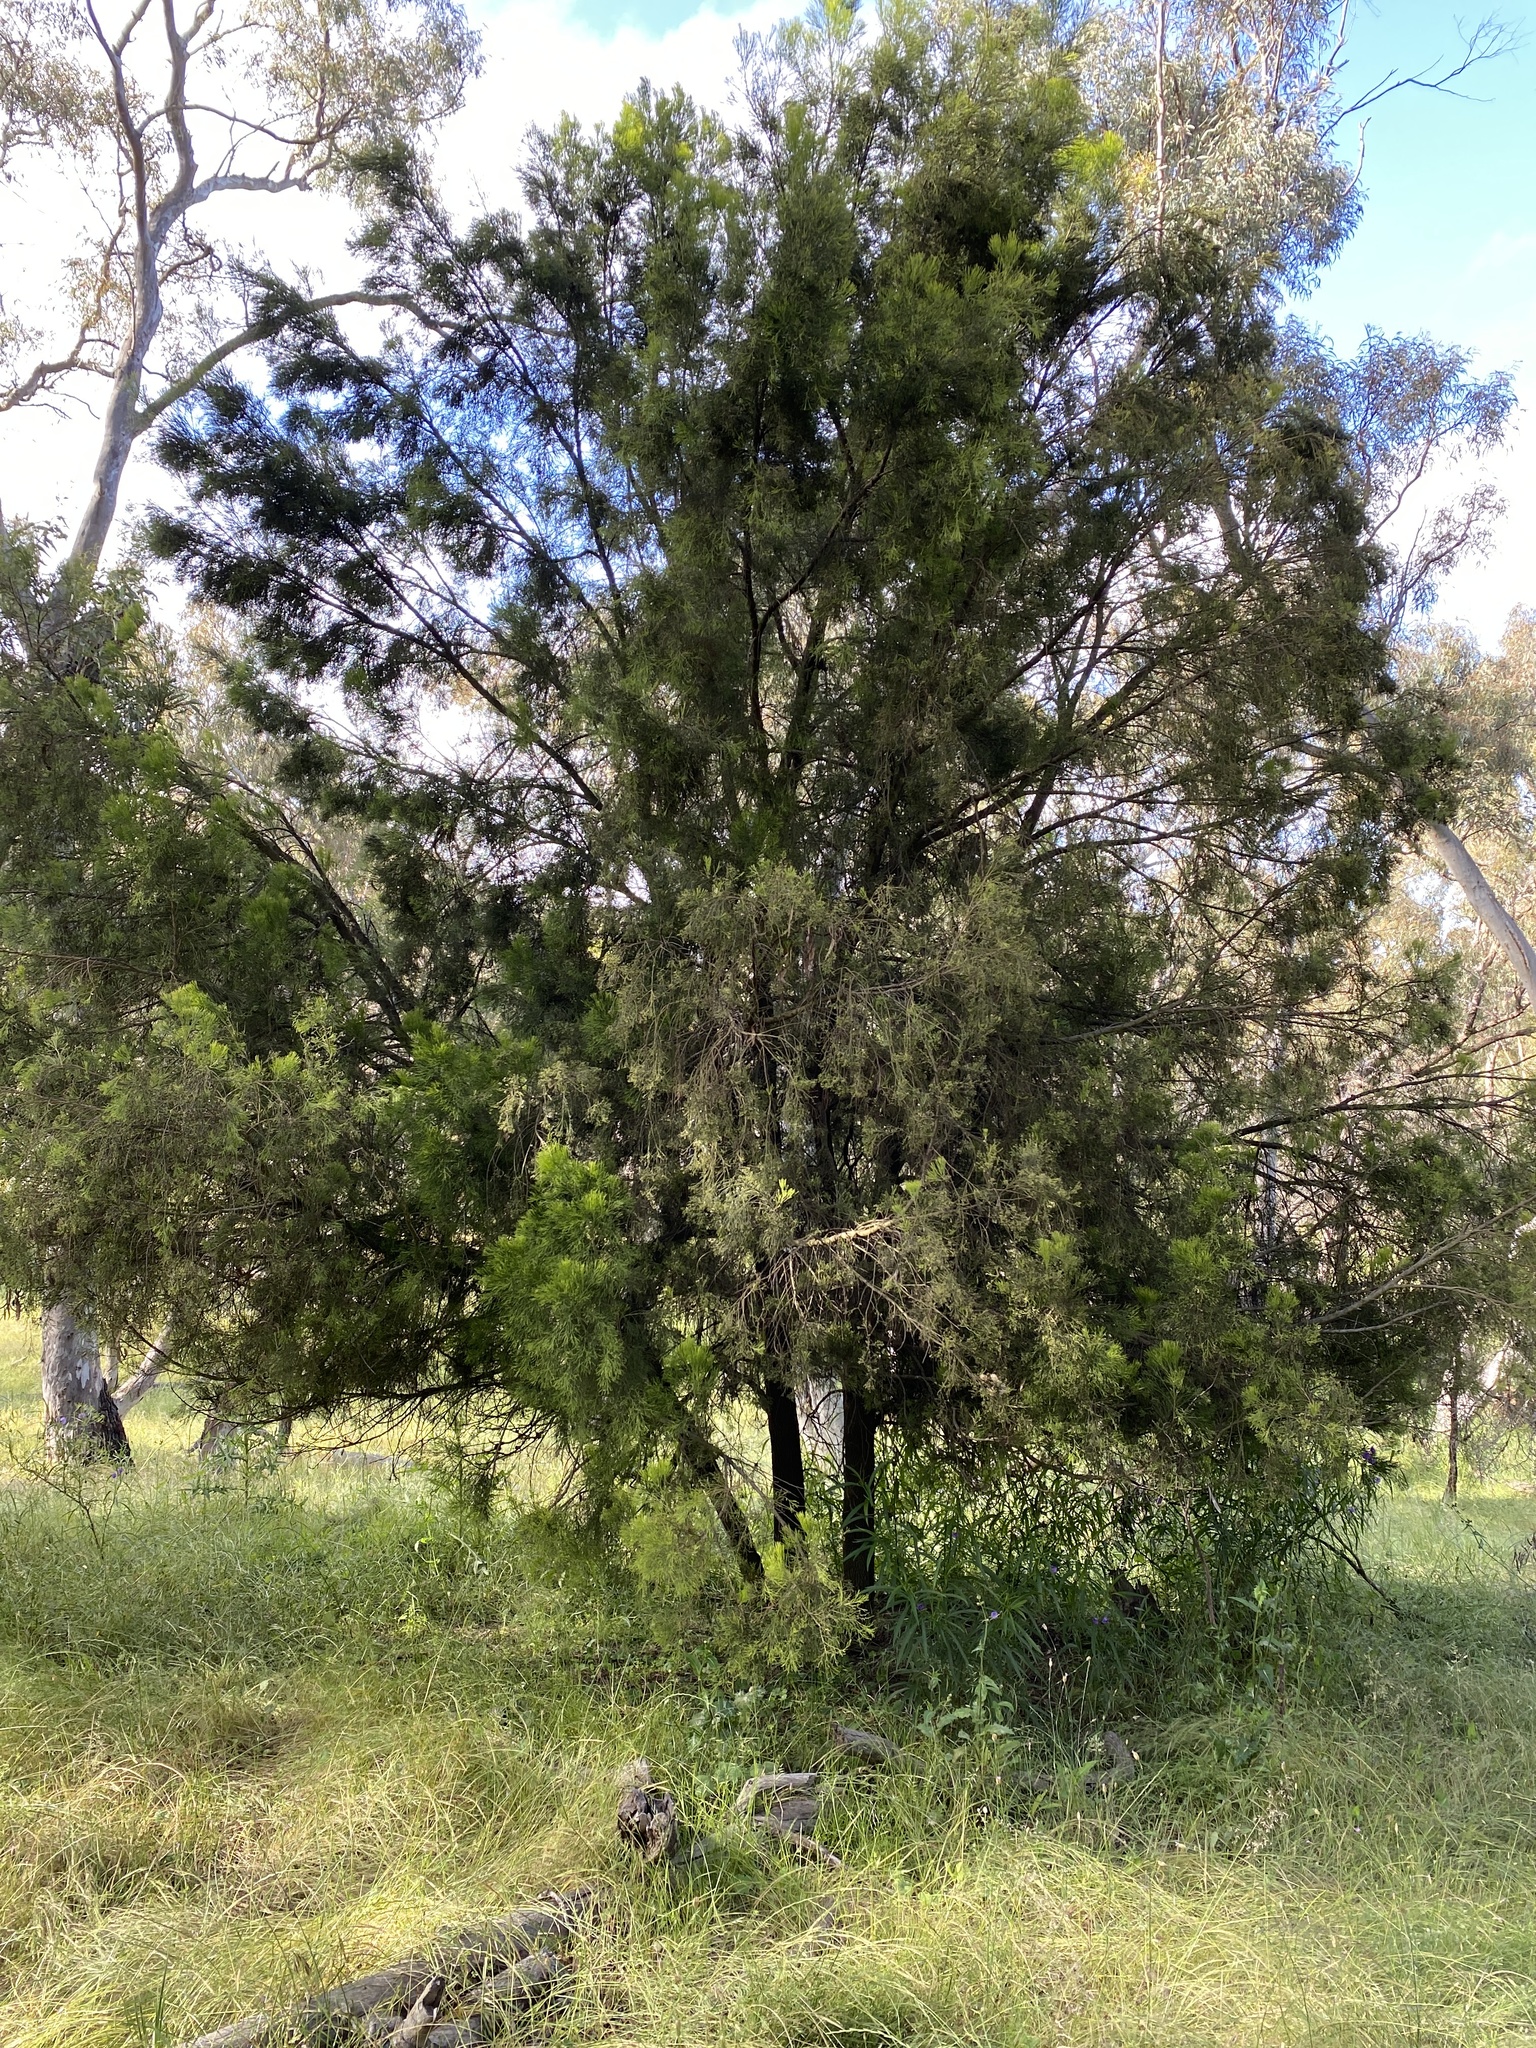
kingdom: Plantae
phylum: Tracheophyta
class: Magnoliopsida
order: Santalales
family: Santalaceae
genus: Exocarpos
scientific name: Exocarpos cupressiformis
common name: Cherry ballart
